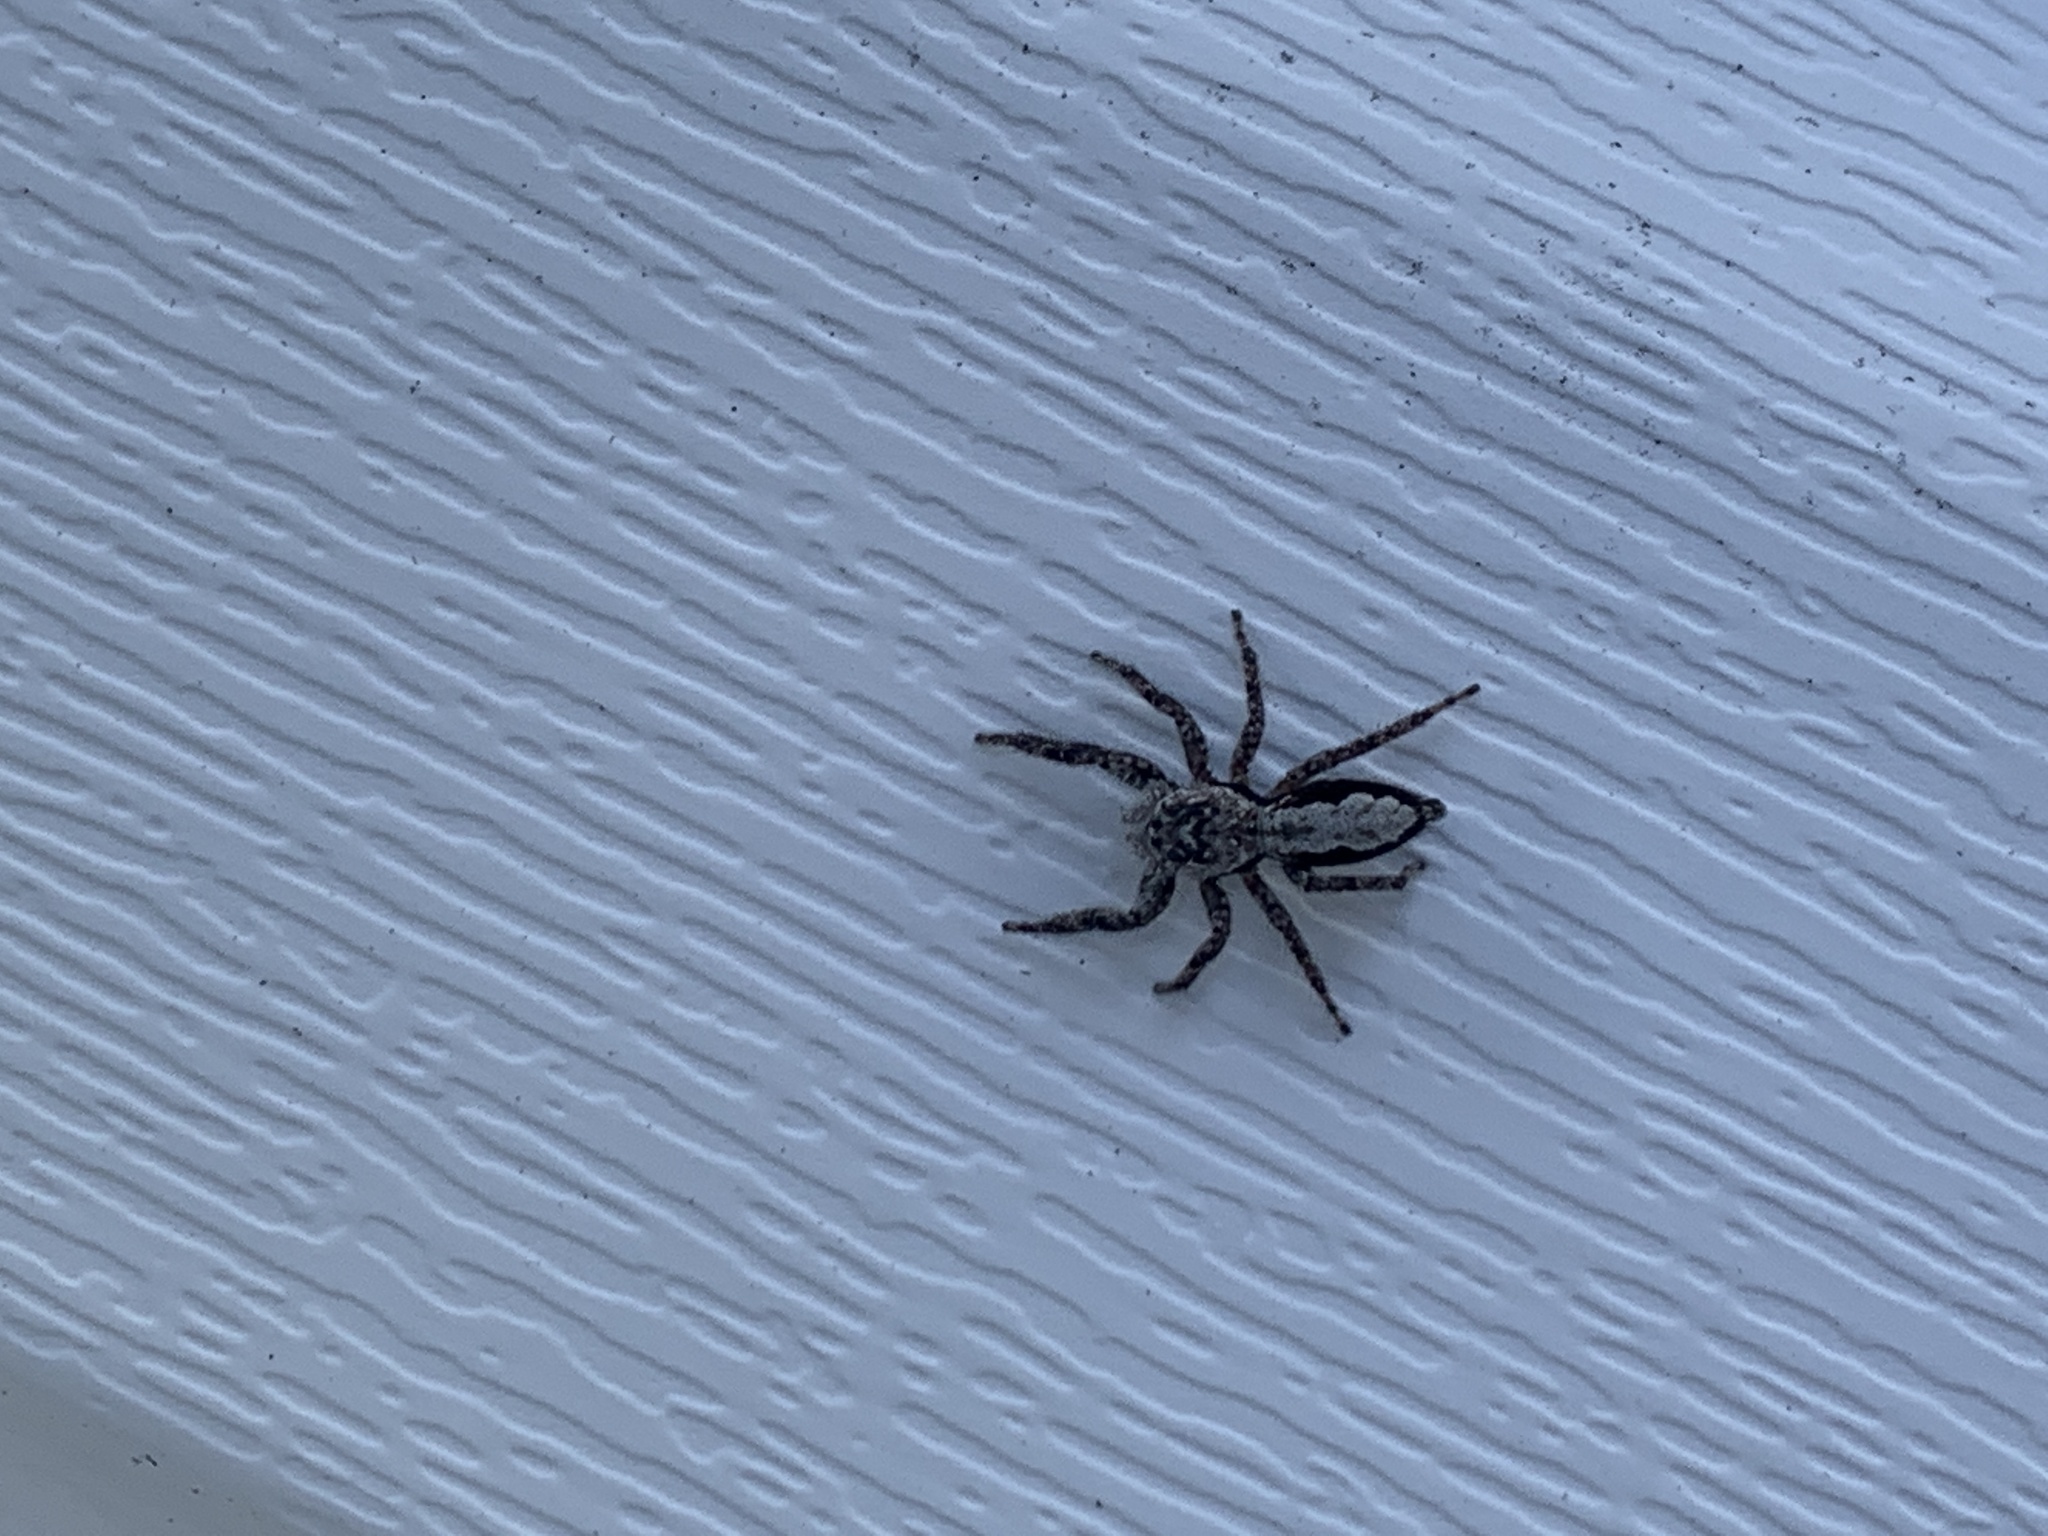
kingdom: Animalia
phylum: Arthropoda
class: Arachnida
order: Araneae
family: Salticidae
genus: Platycryptus
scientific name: Platycryptus undatus
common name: Tan jumping spider
